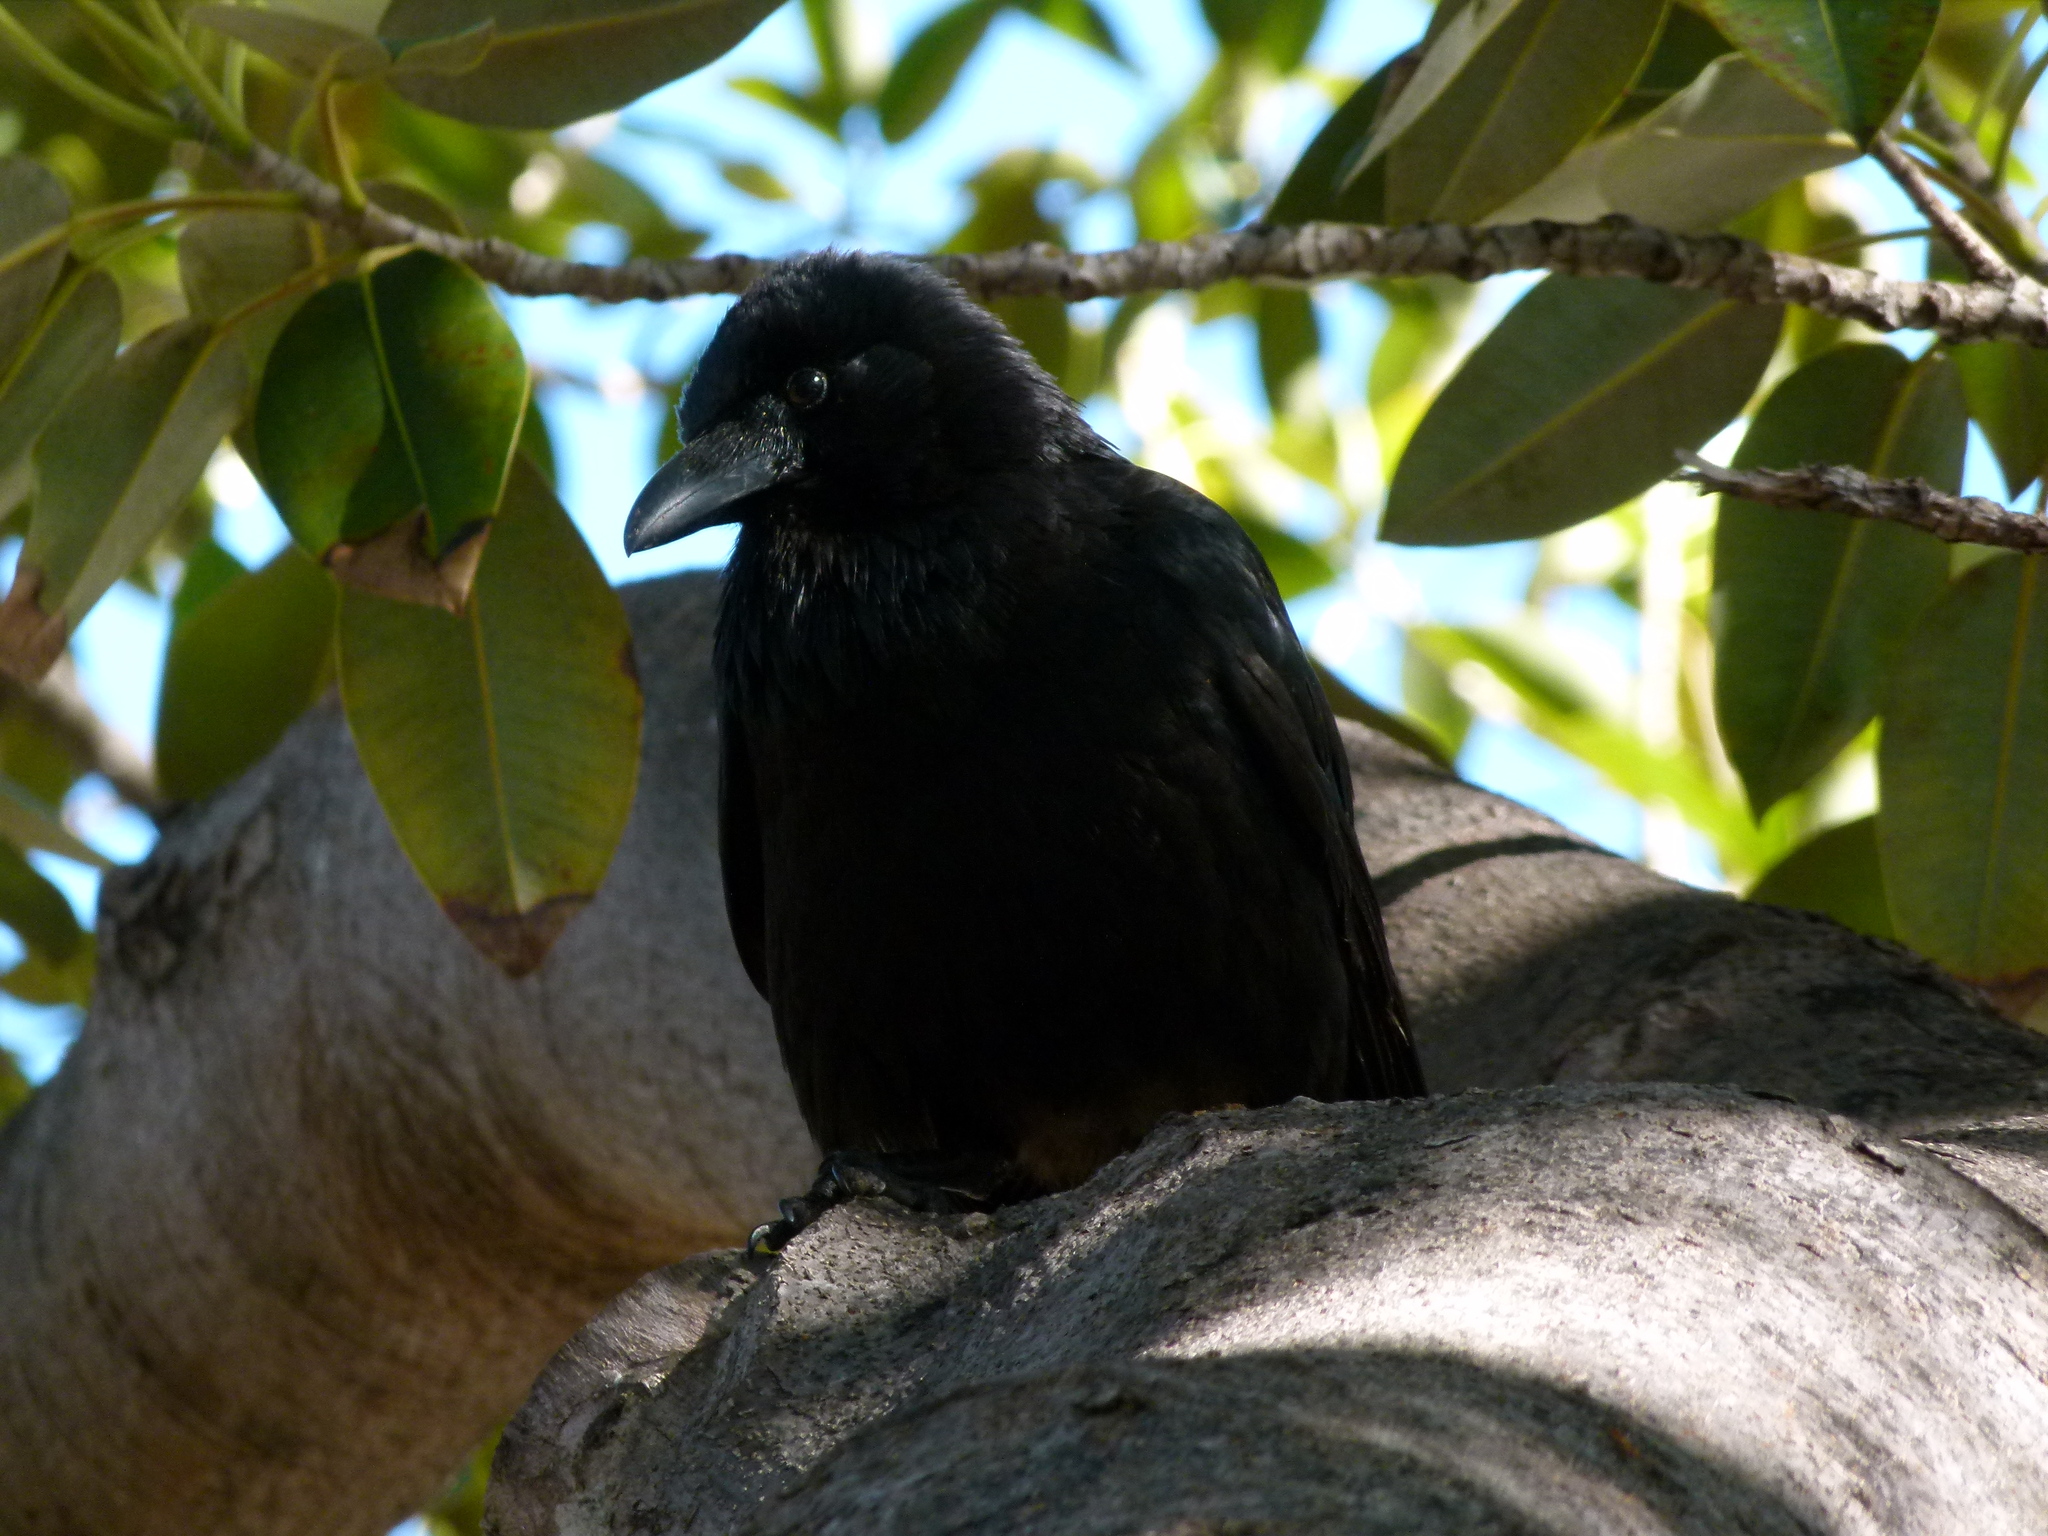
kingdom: Animalia
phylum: Chordata
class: Aves
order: Passeriformes
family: Corvidae
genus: Corvus
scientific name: Corvus coronoides
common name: Australian raven
